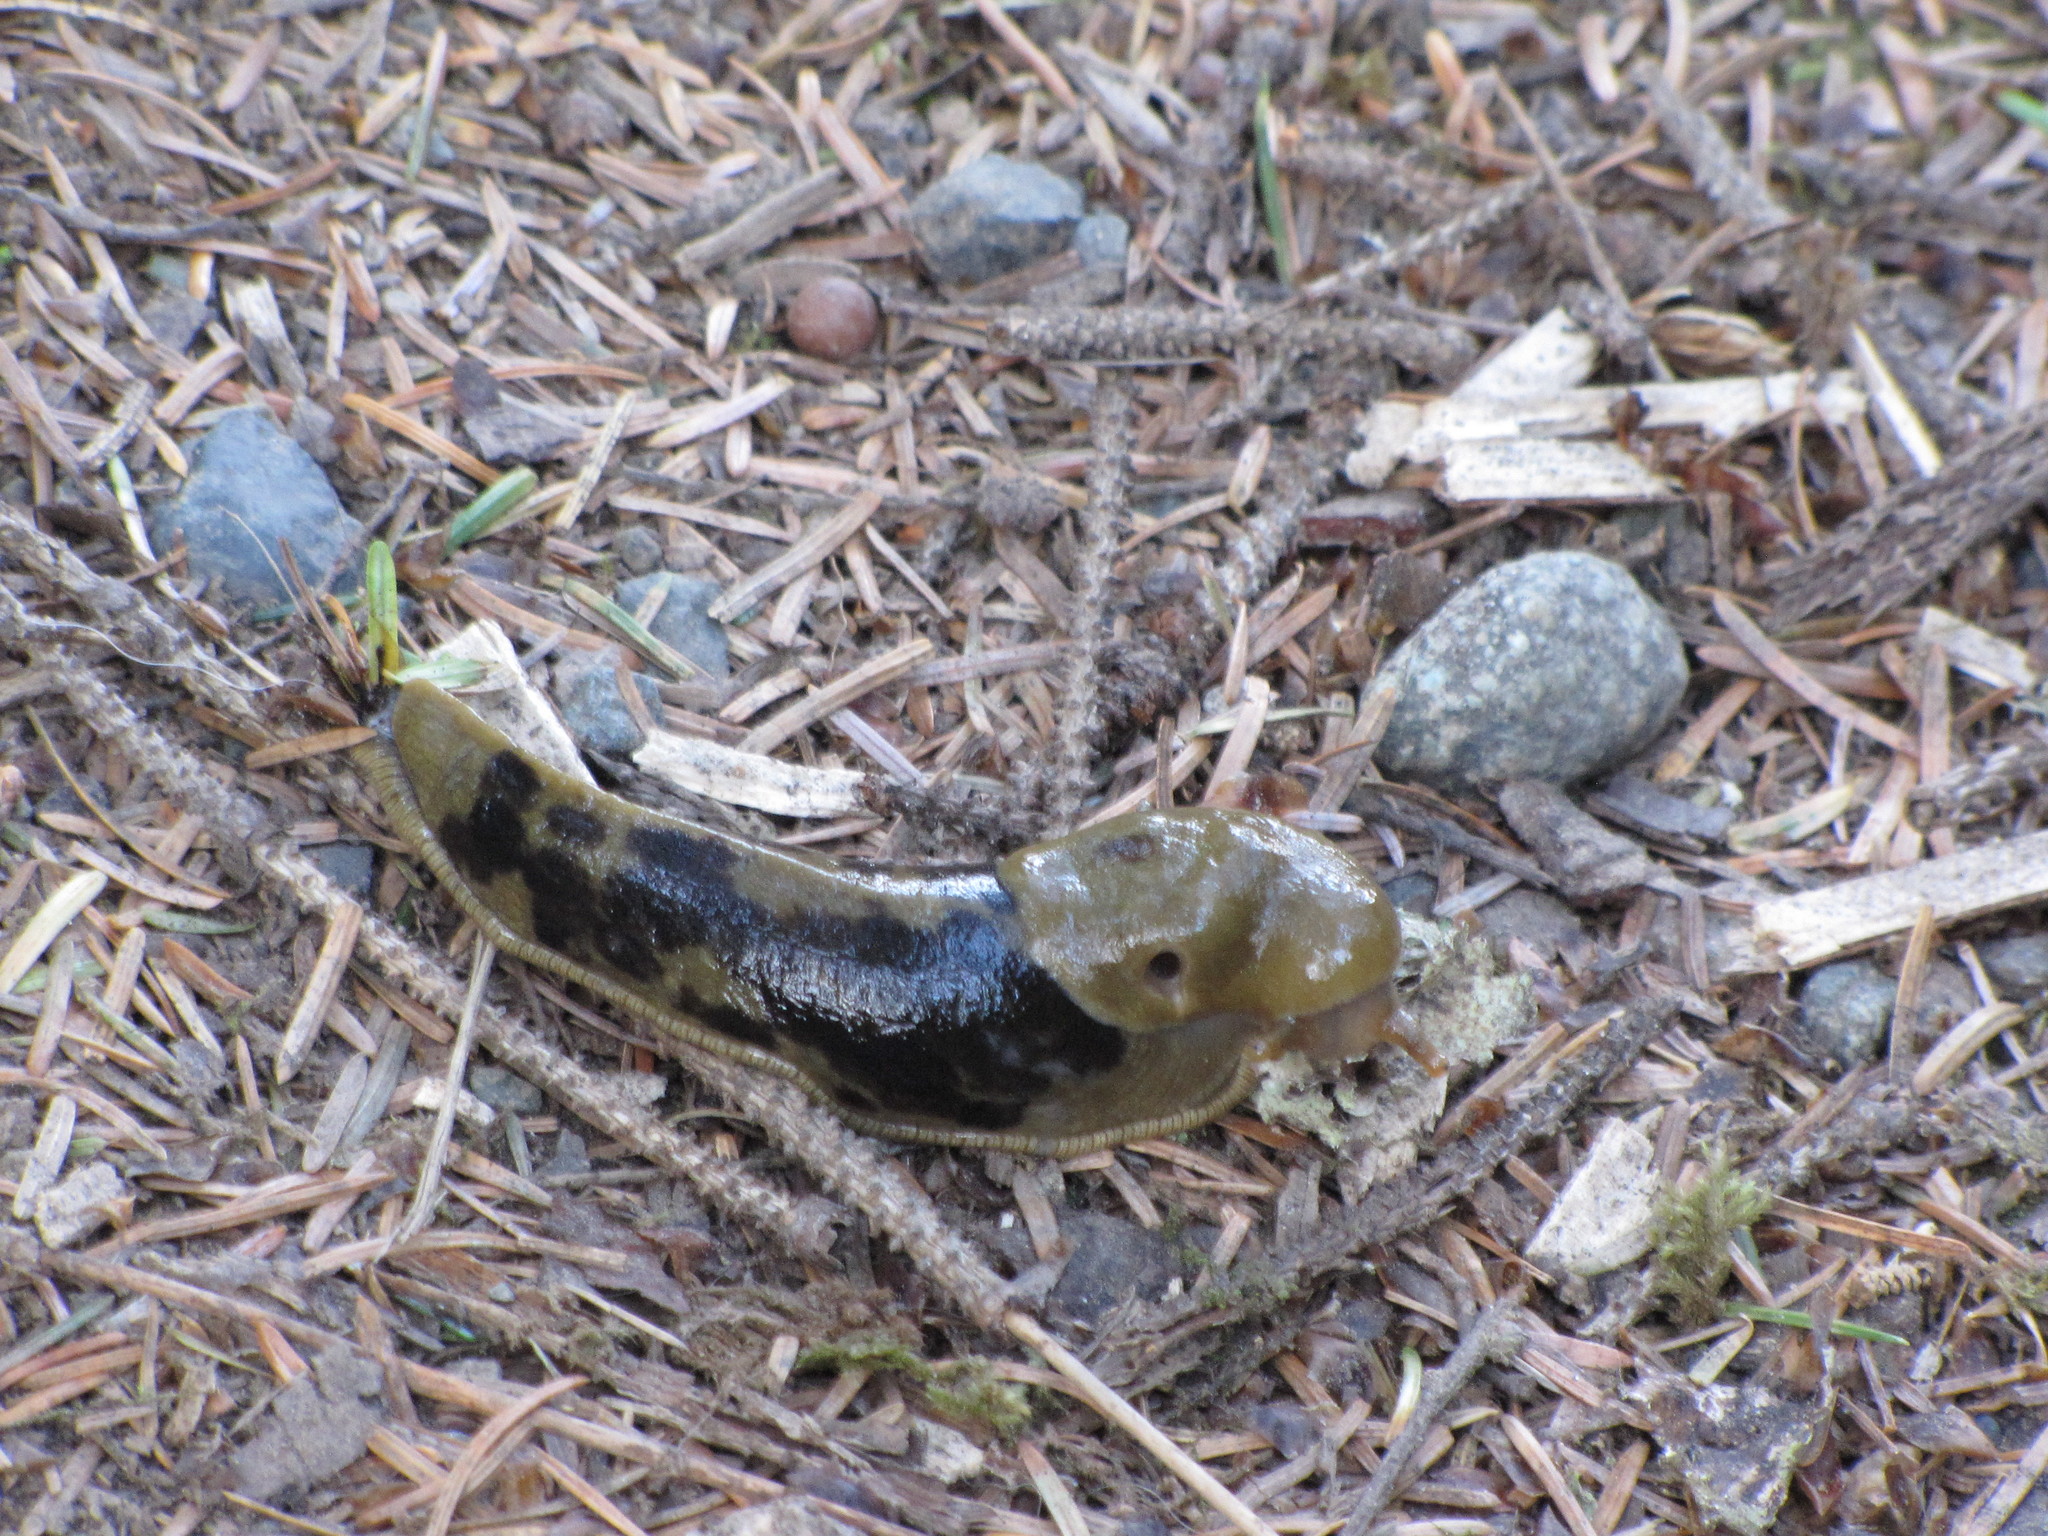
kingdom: Animalia
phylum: Mollusca
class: Gastropoda
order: Stylommatophora
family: Ariolimacidae
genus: Ariolimax
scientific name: Ariolimax columbianus
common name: Pacific banana slug
